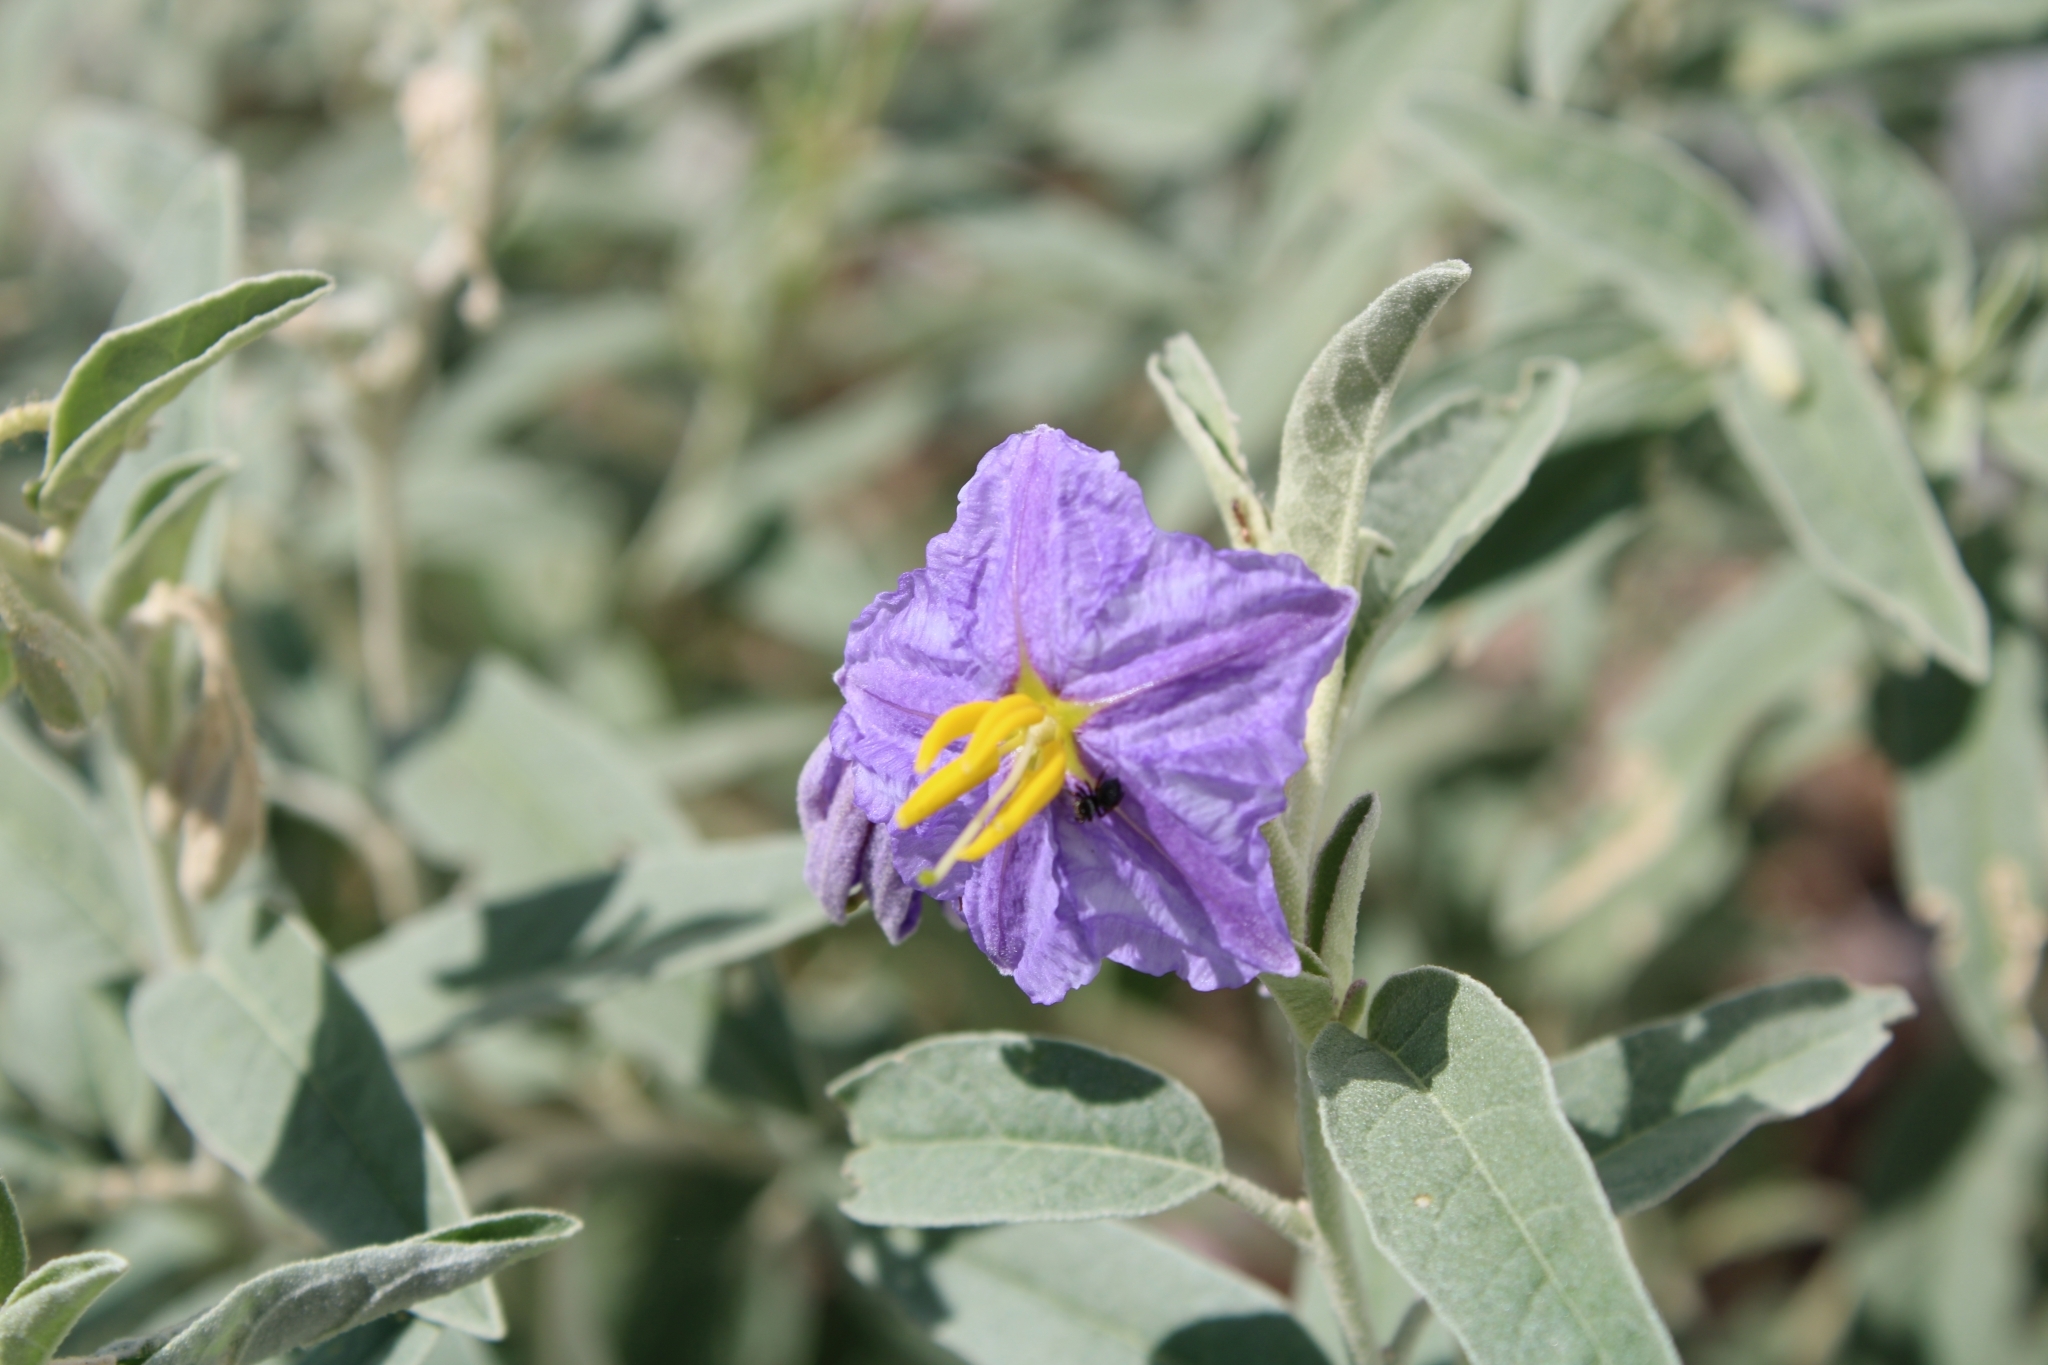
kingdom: Plantae
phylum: Tracheophyta
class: Magnoliopsida
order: Solanales
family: Solanaceae
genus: Solanum
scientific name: Solanum elaeagnifolium
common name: Silverleaf nightshade
